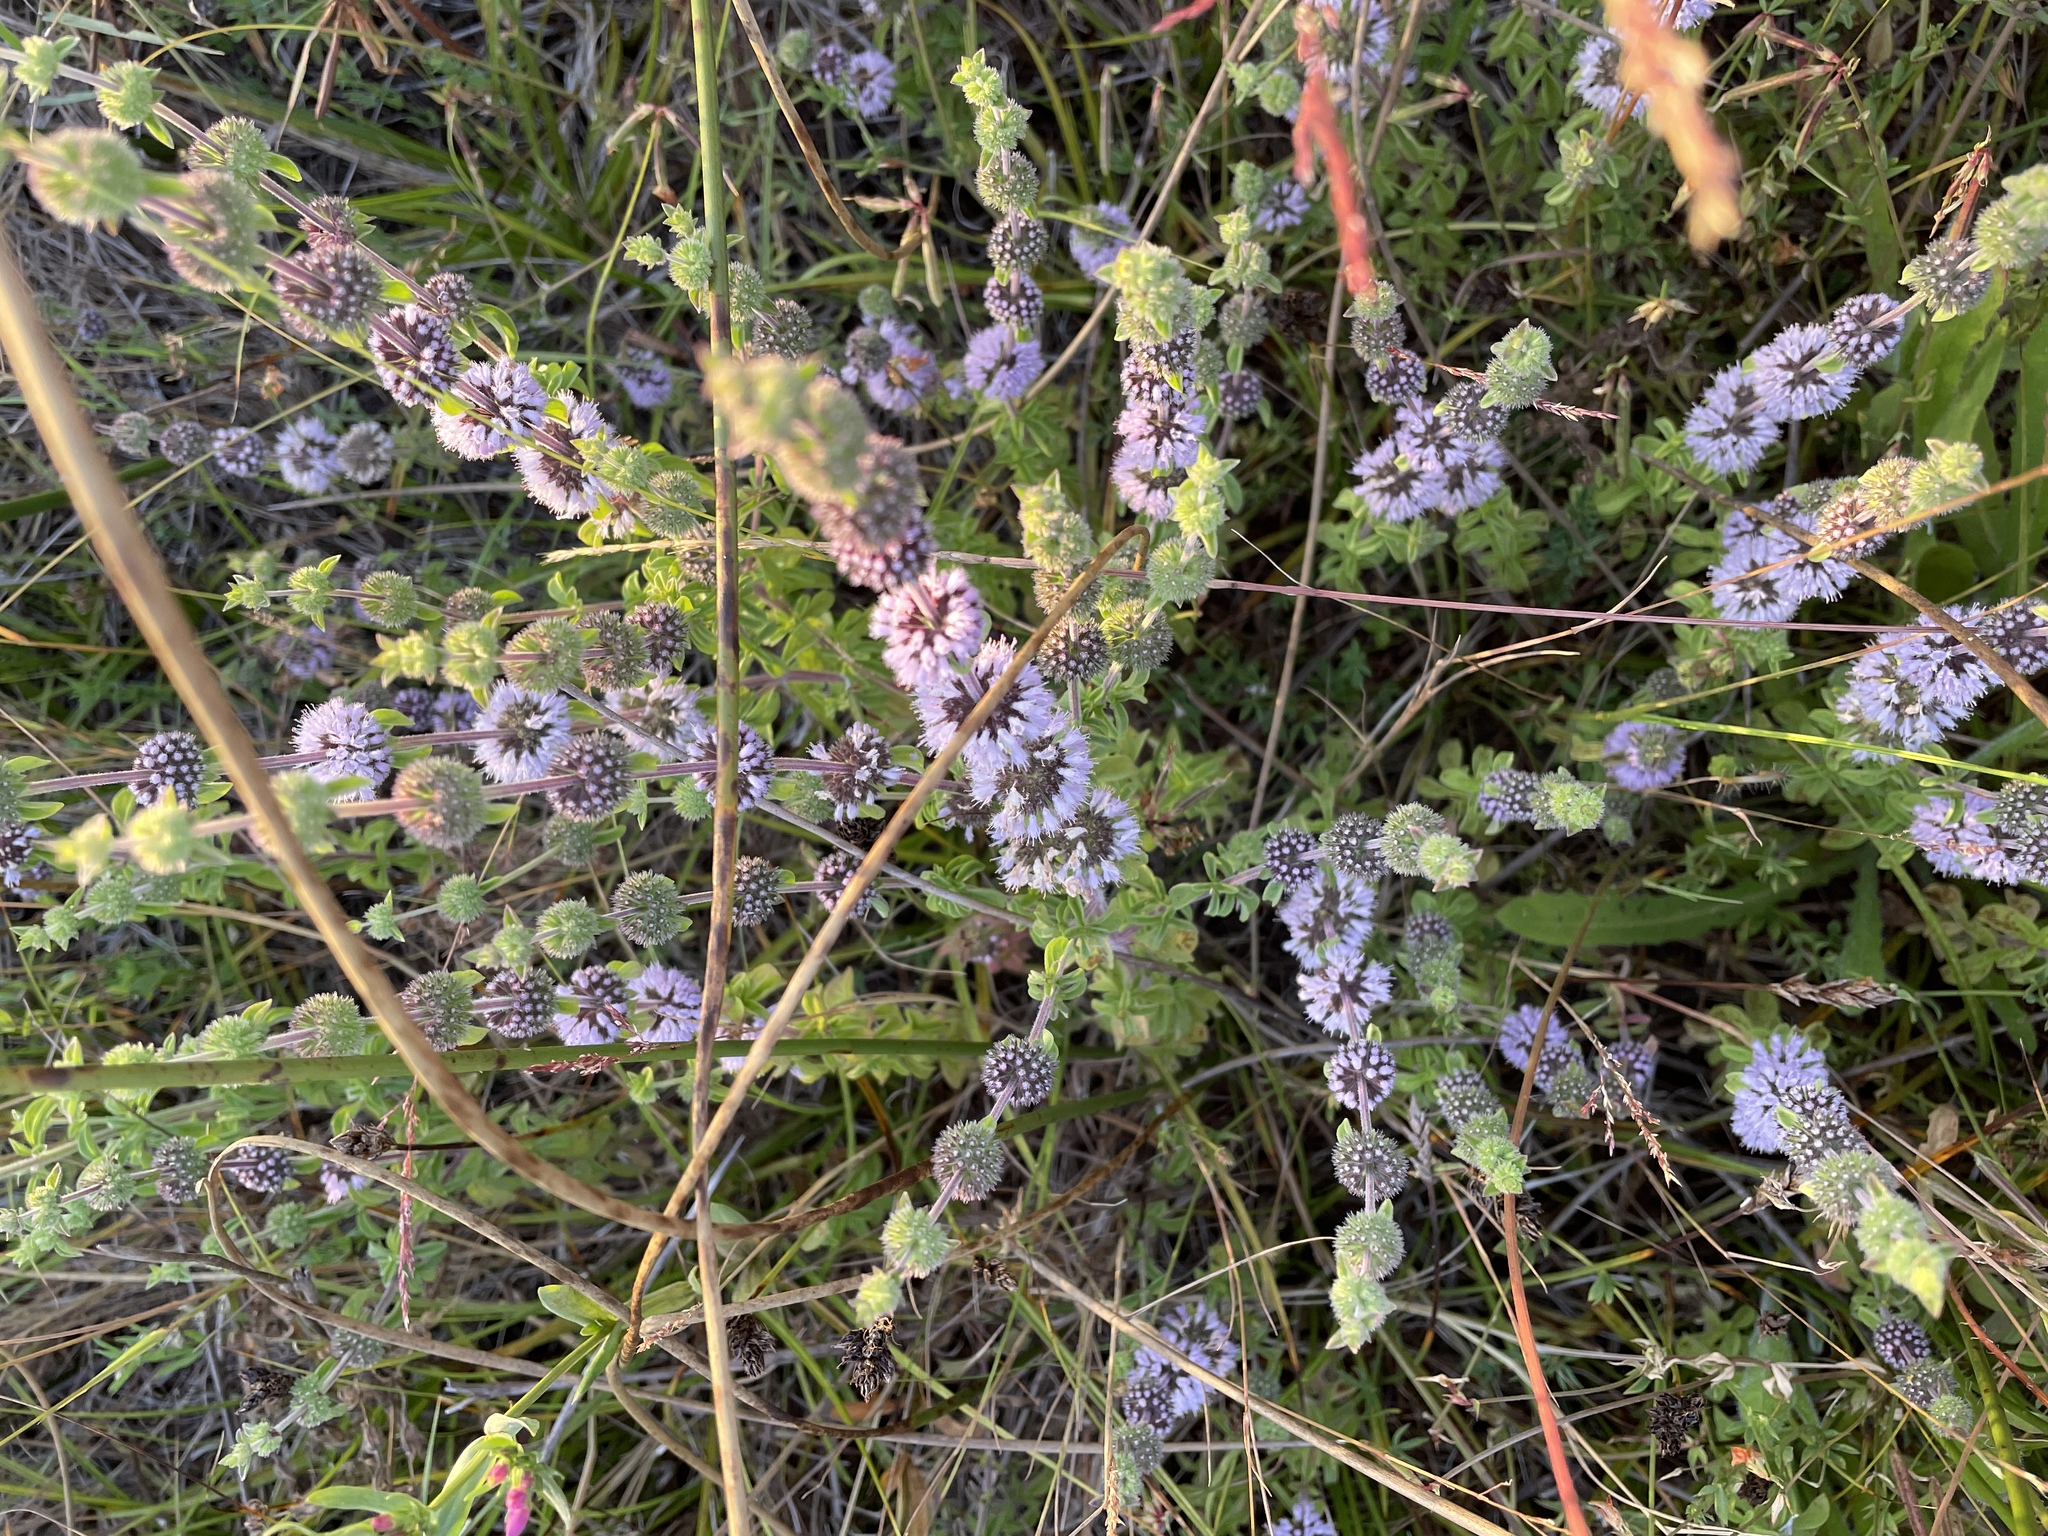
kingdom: Plantae
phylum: Tracheophyta
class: Magnoliopsida
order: Lamiales
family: Lamiaceae
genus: Mentha
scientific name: Mentha pulegium
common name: Pennyroyal
